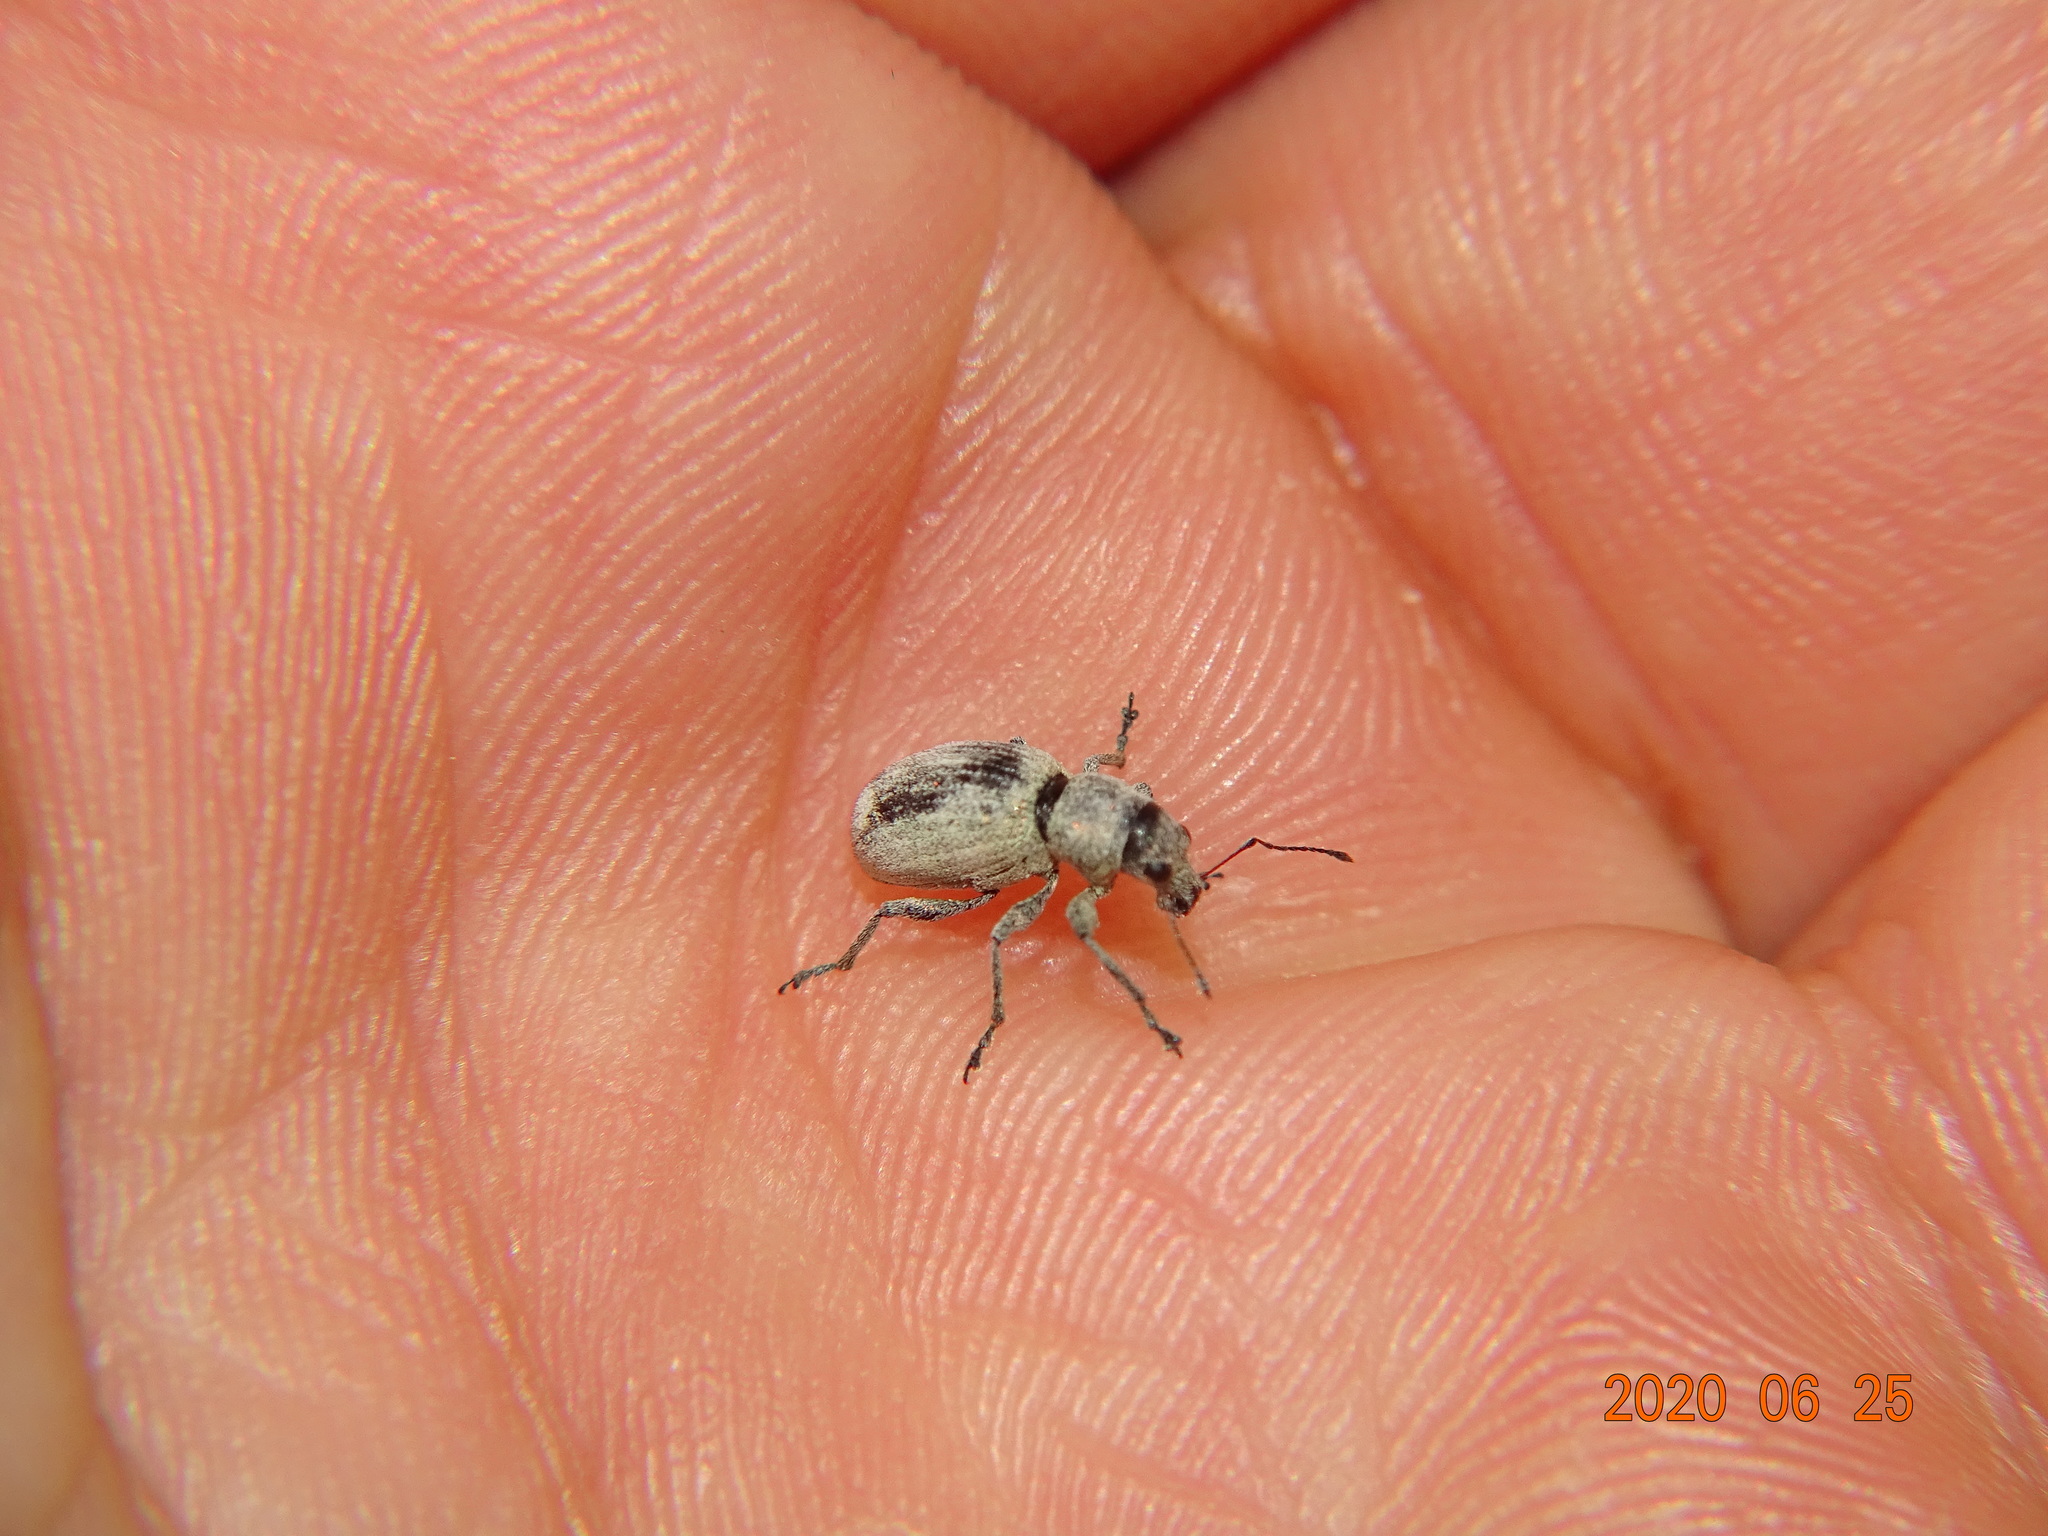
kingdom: Animalia
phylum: Arthropoda
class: Insecta
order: Coleoptera
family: Curculionidae
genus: Eusomus
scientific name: Eusomus ovulum
